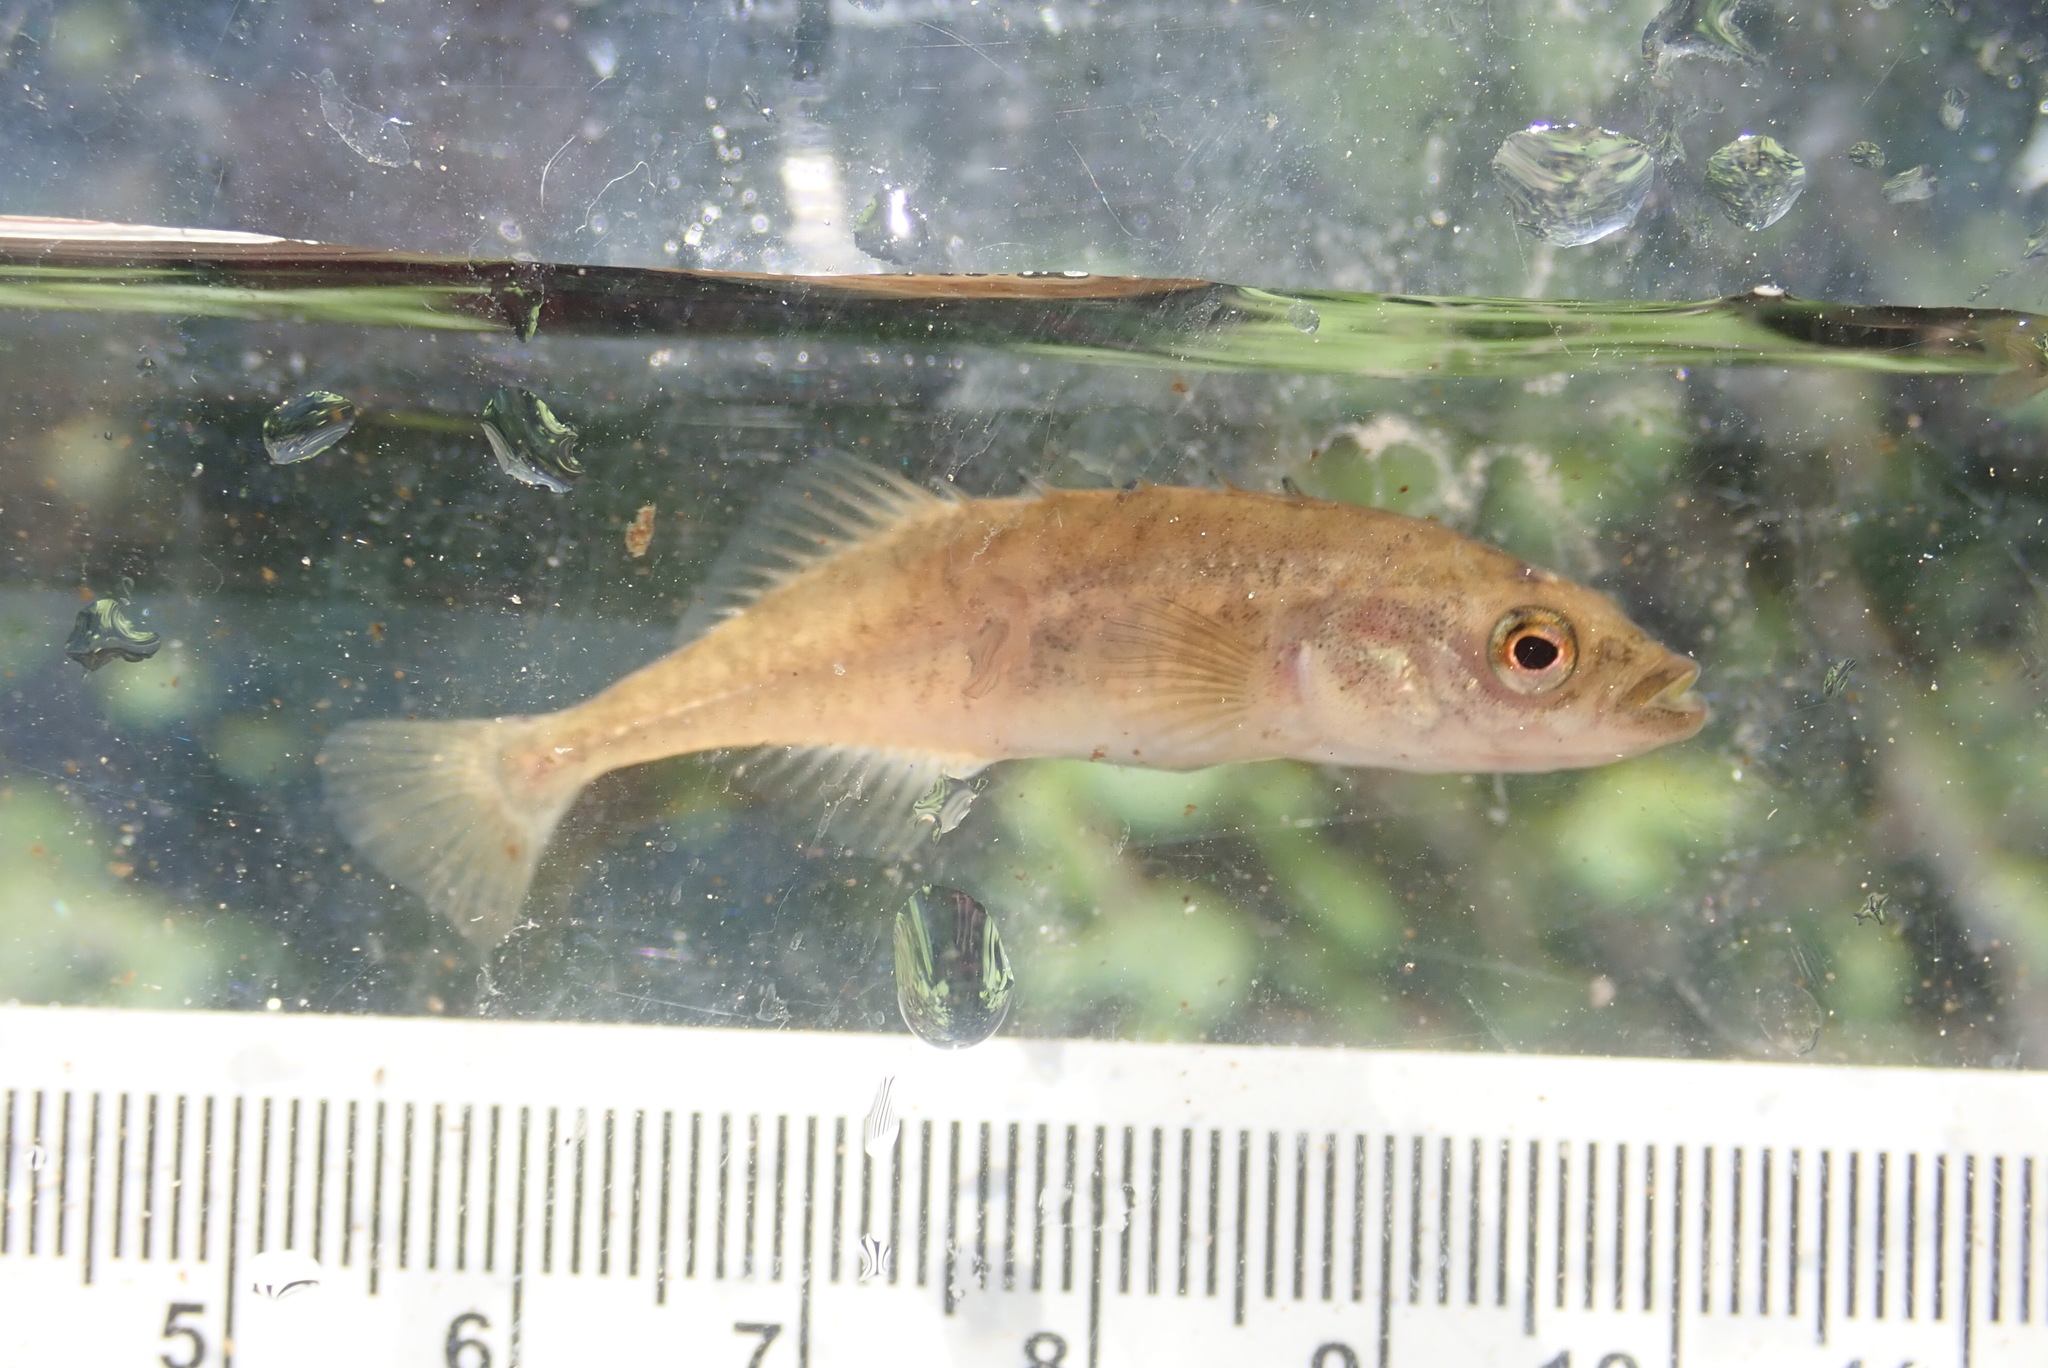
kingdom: Animalia
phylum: Chordata
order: Gasterosteiformes
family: Gasterosteidae
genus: Culaea
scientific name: Culaea inconstans
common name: Brook stickleback
